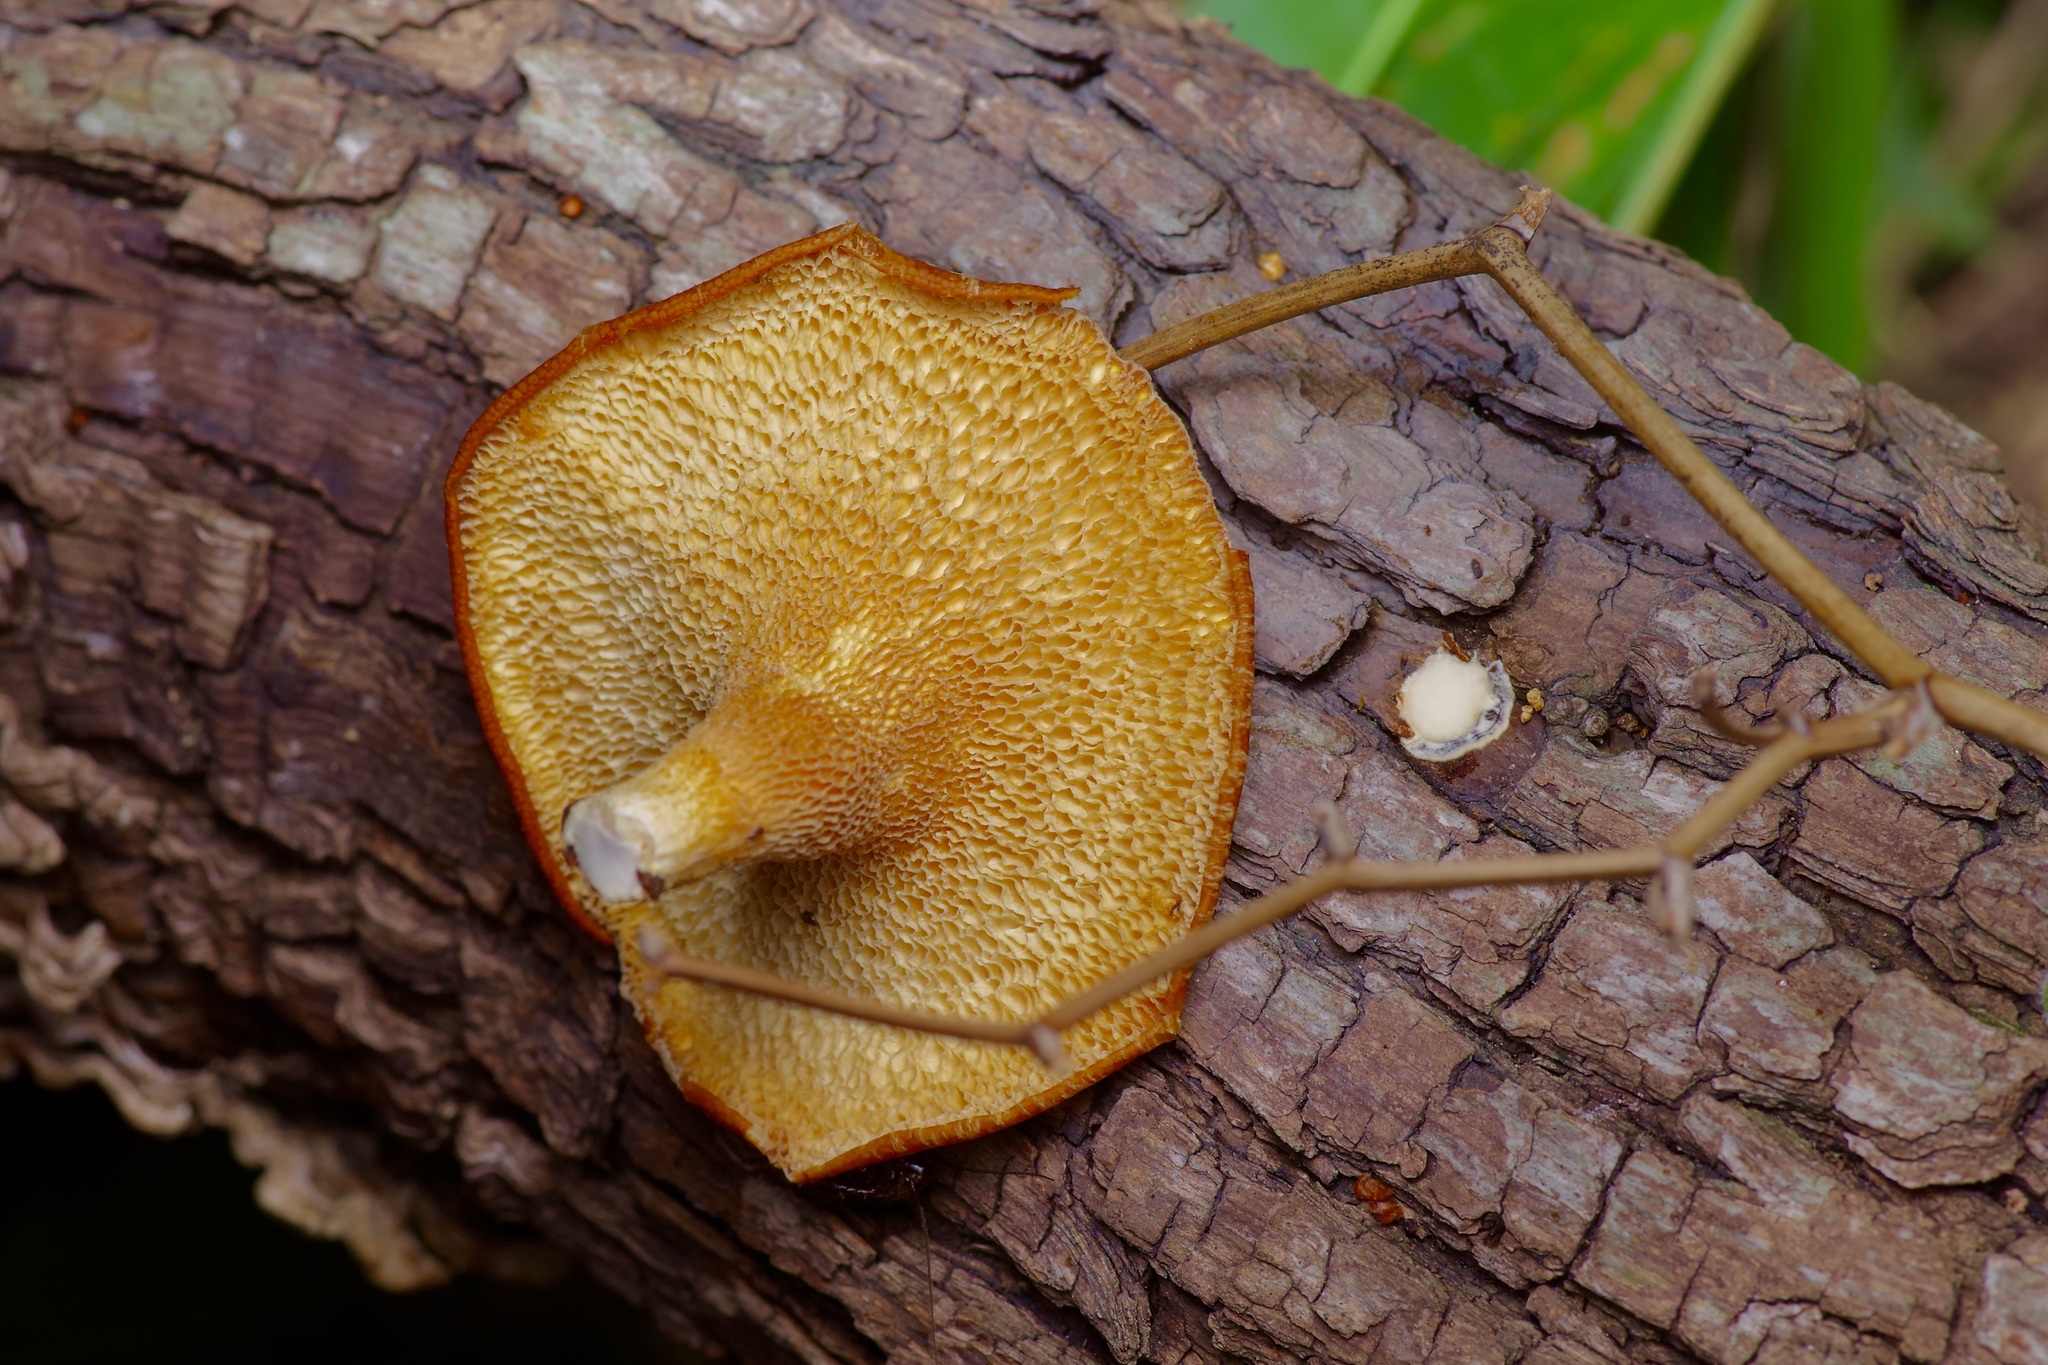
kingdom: Fungi
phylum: Basidiomycota
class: Agaricomycetes
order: Polyporales
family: Polyporaceae
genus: Favolus
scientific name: Favolus tenuiculus
